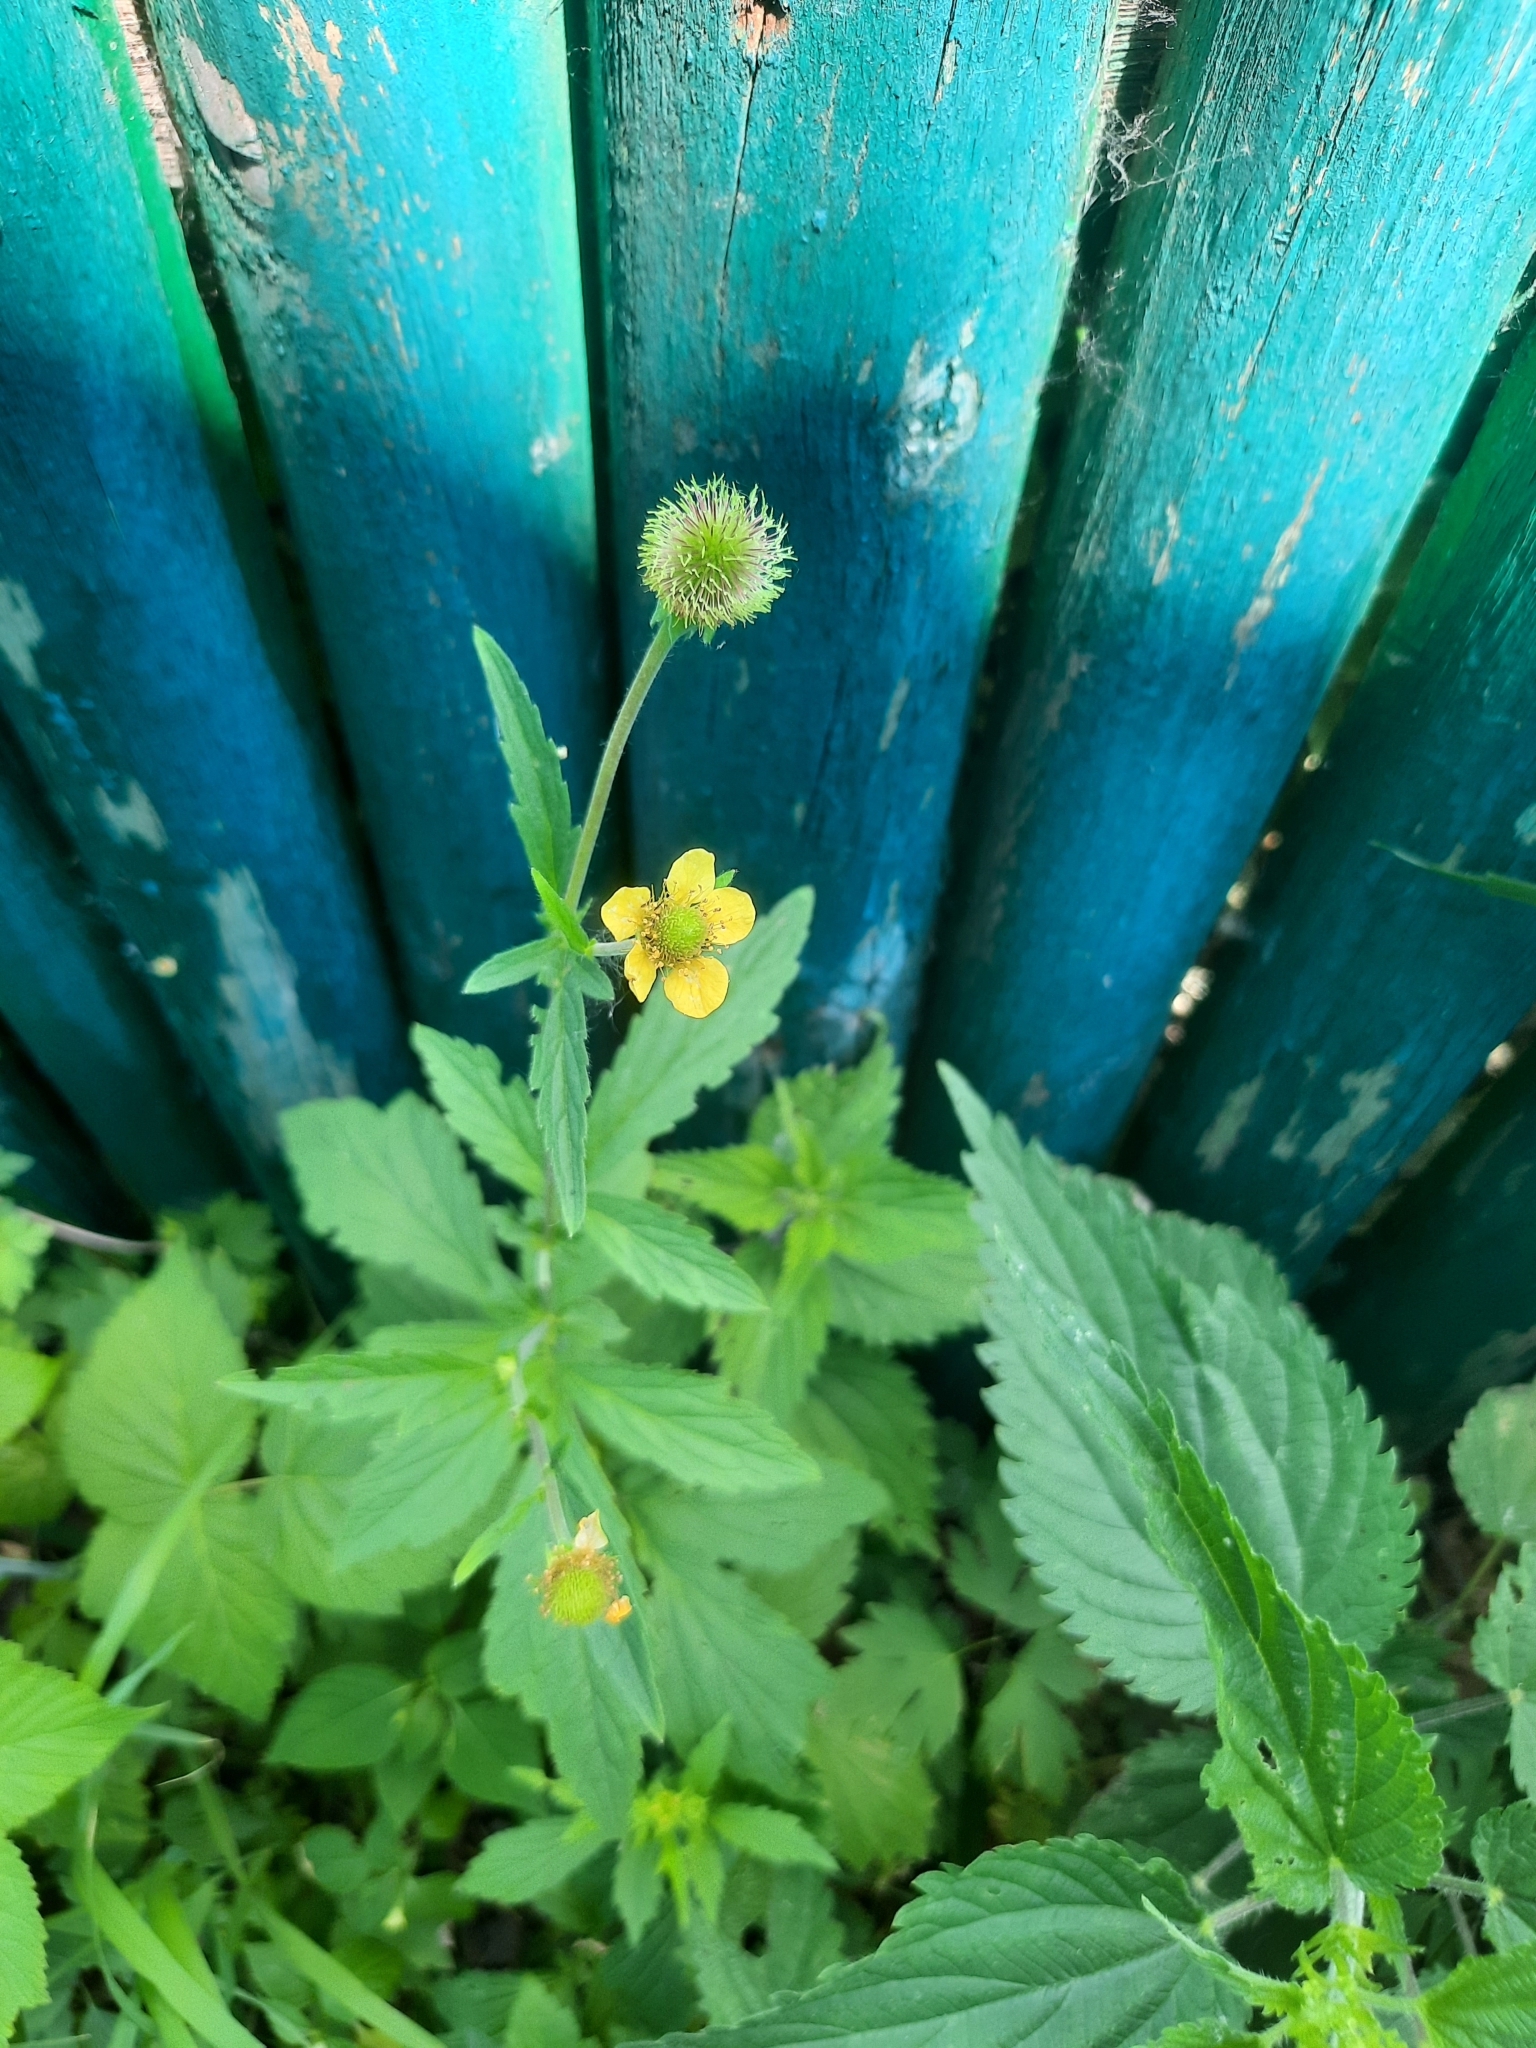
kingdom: Plantae
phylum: Tracheophyta
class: Magnoliopsida
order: Rosales
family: Rosaceae
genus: Geum
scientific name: Geum aleppicum
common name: Yellow avens
